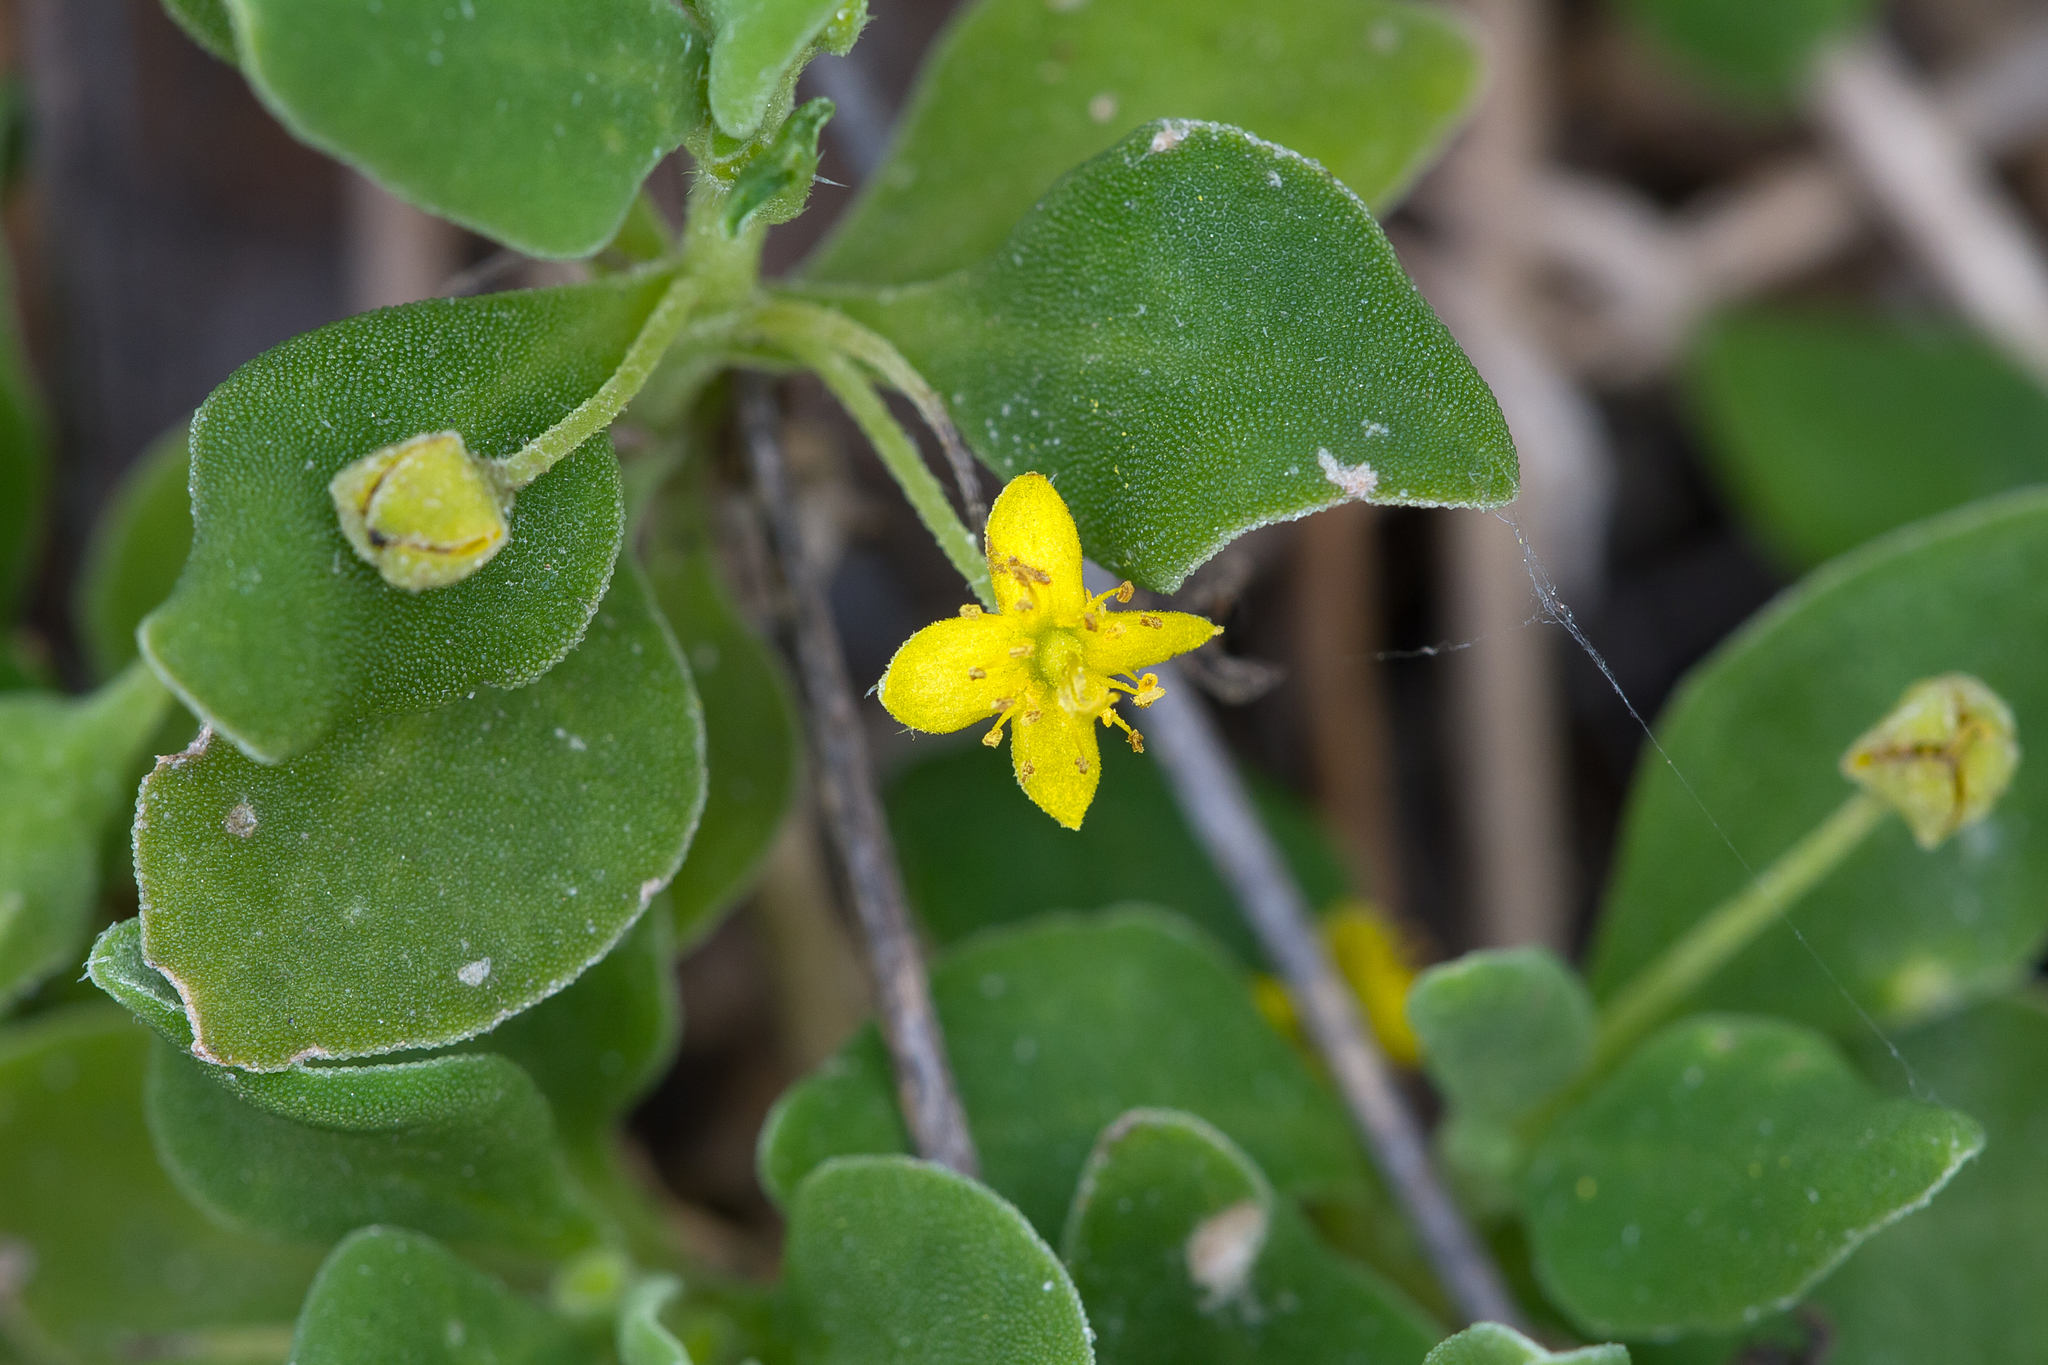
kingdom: Plantae
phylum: Tracheophyta
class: Magnoliopsida
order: Caryophyllales
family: Aizoaceae
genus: Tetragonia
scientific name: Tetragonia implexicoma
